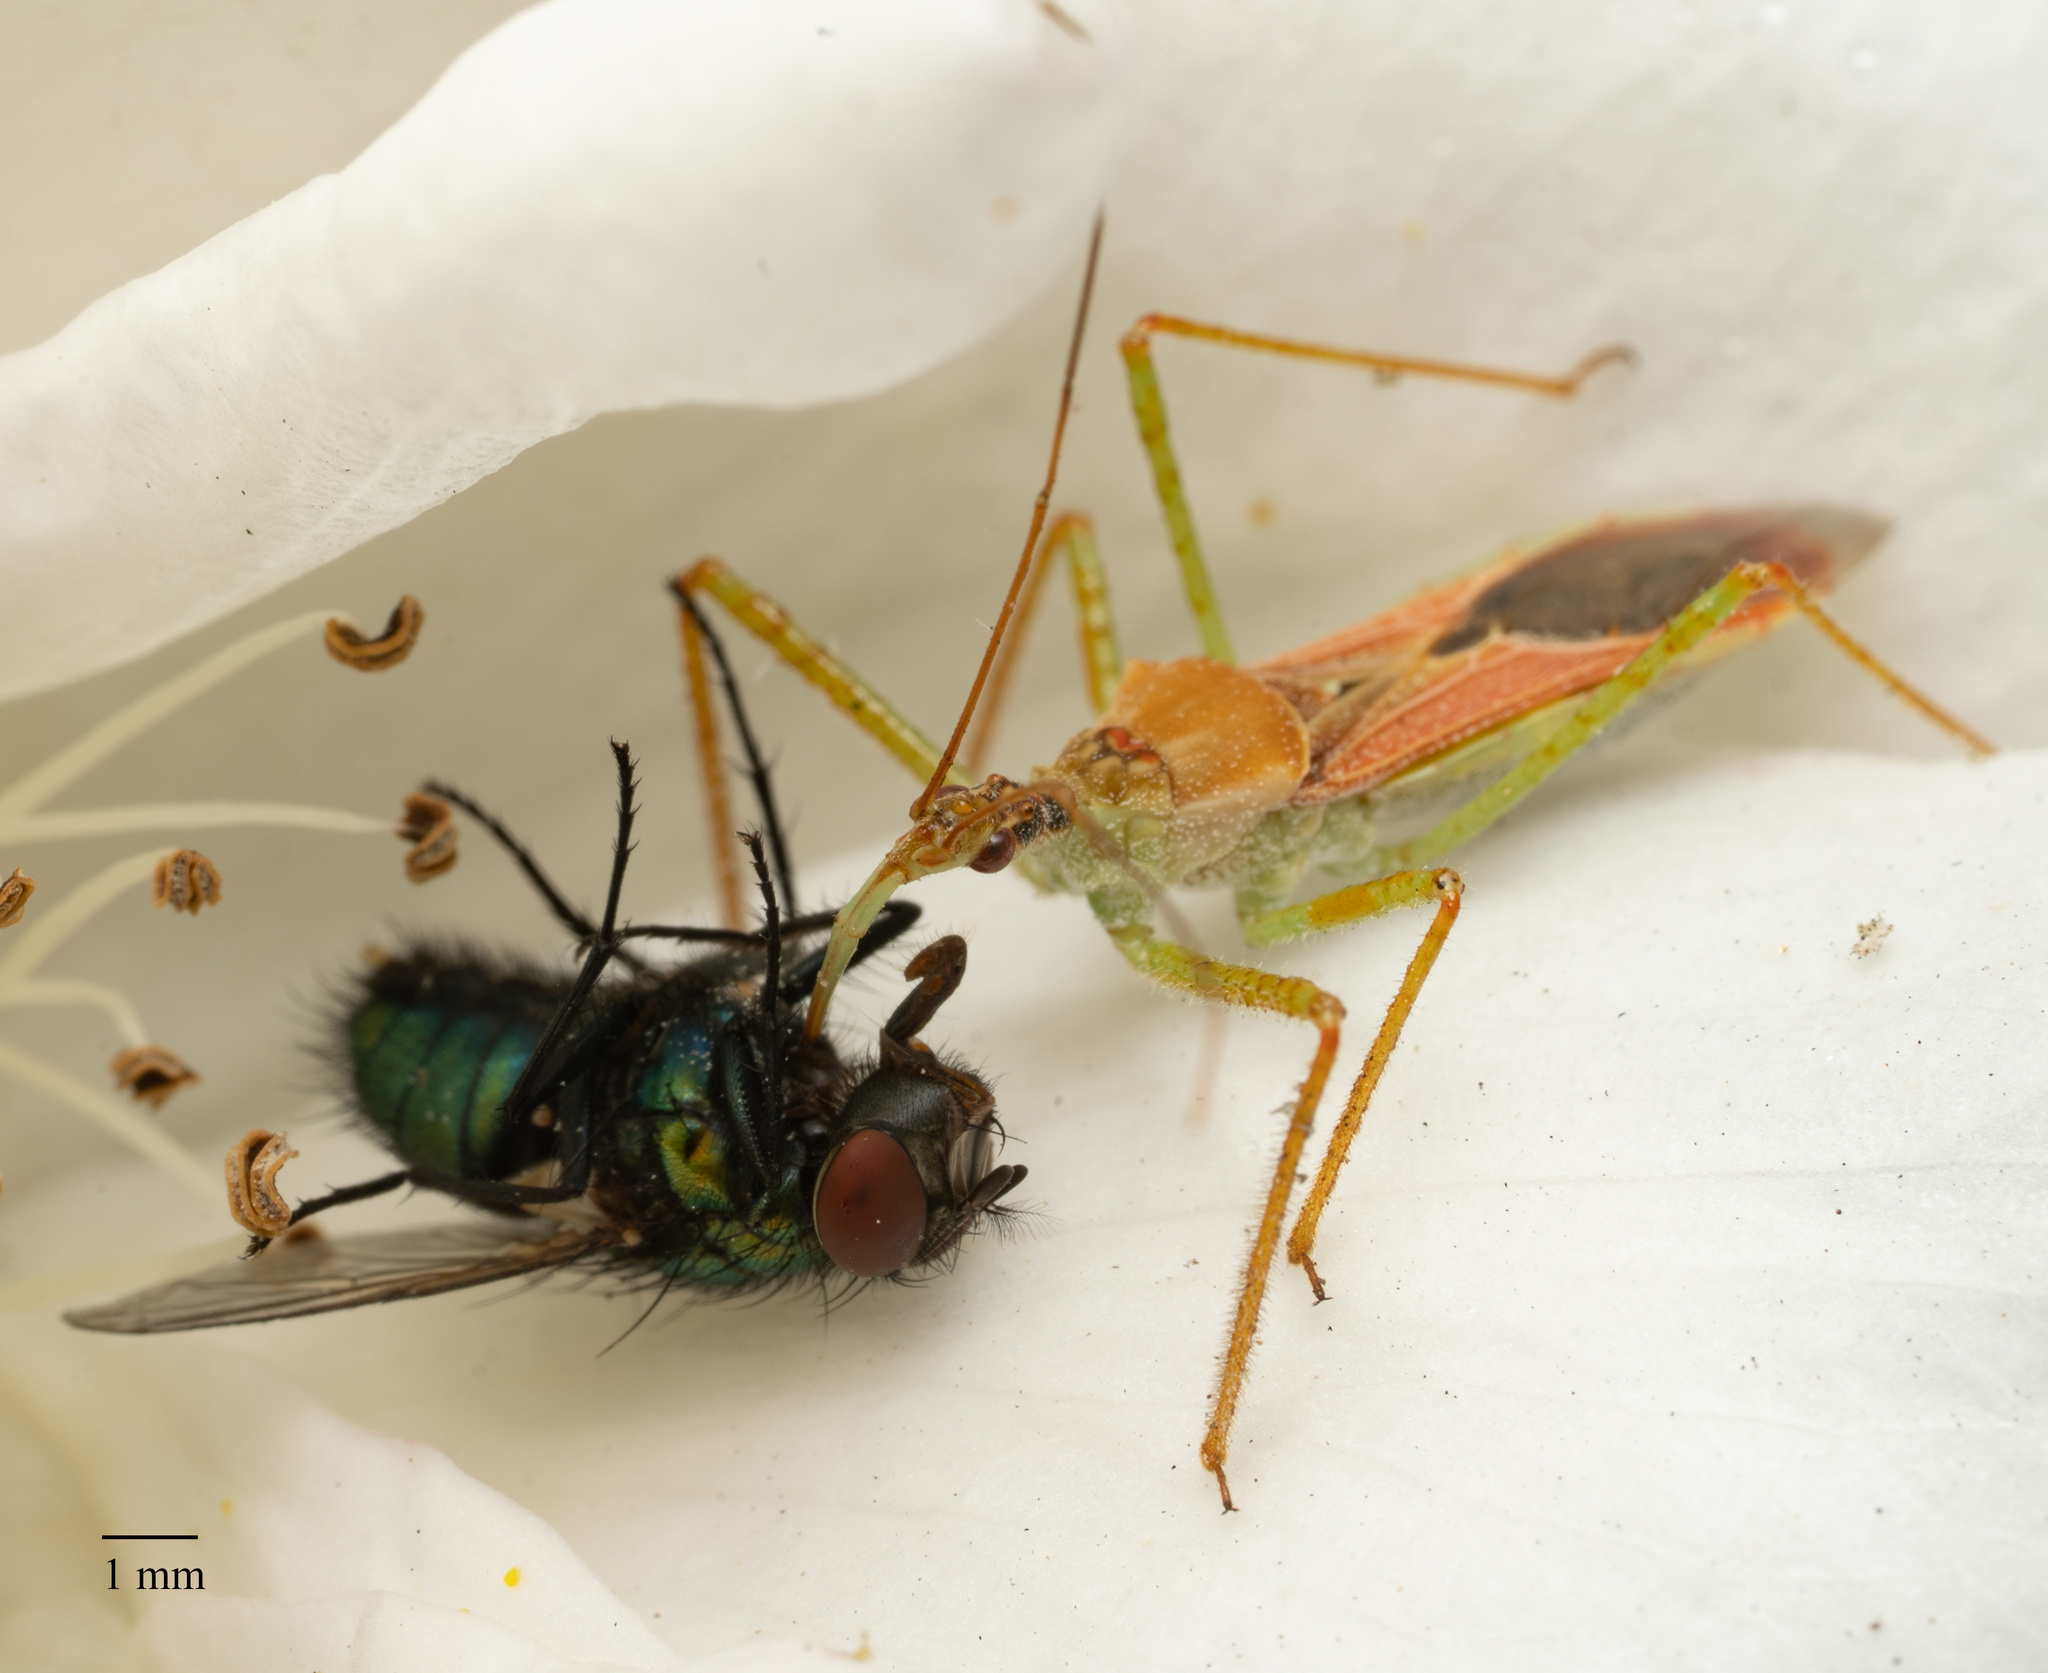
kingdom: Animalia
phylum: Arthropoda
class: Insecta
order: Hemiptera
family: Reduviidae
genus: Zelus
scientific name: Zelus renardii
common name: Assassin bug
